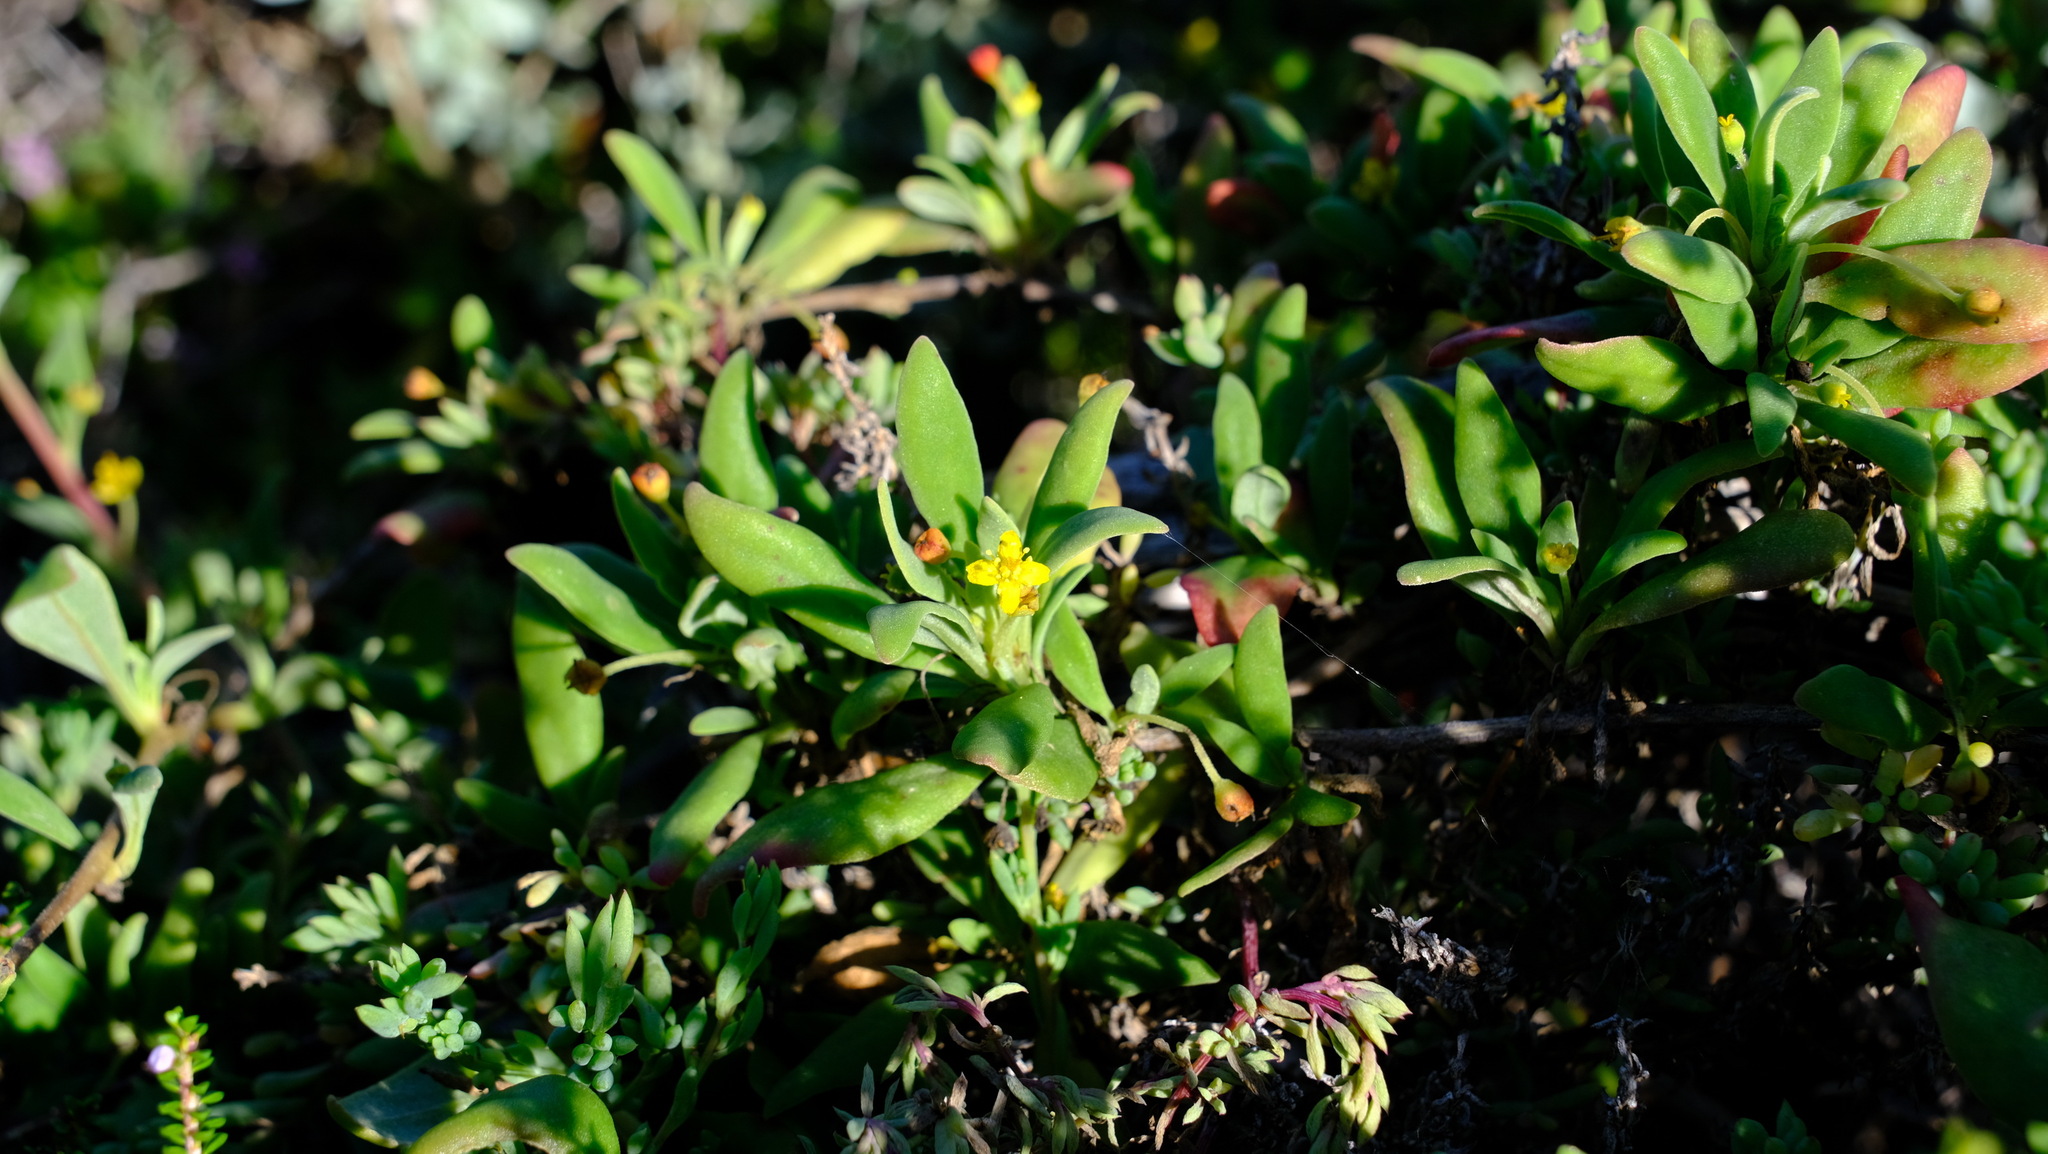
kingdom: Plantae
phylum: Tracheophyta
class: Magnoliopsida
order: Caryophyllales
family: Aizoaceae
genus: Tetragonia
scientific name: Tetragonia implexicoma
